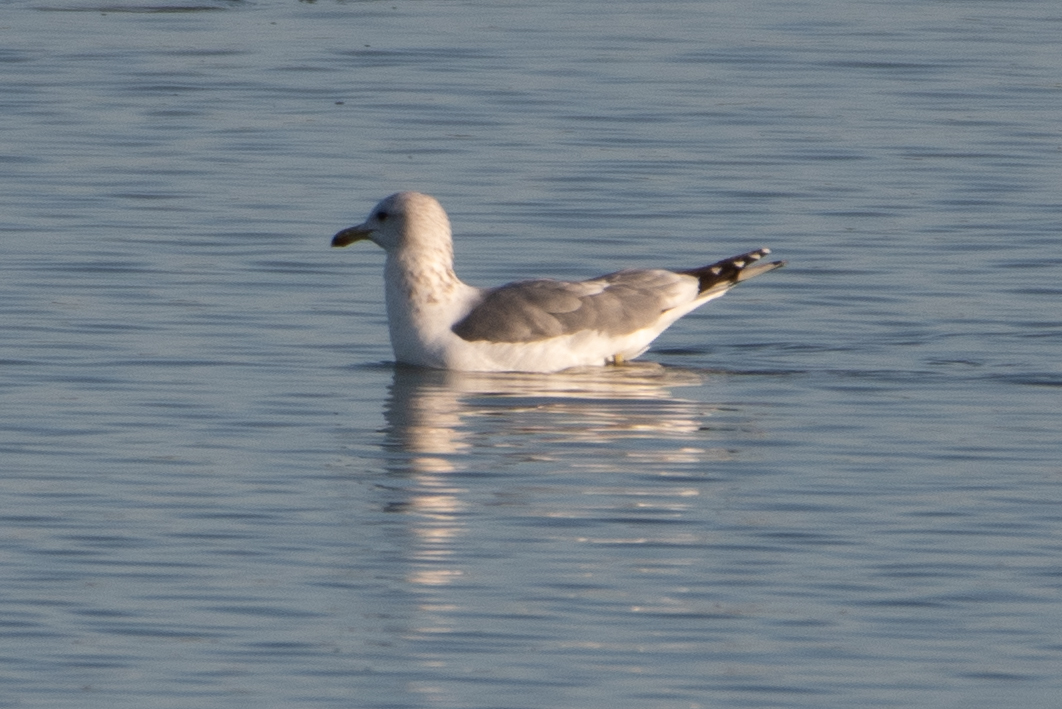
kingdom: Animalia
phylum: Chordata
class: Aves
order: Charadriiformes
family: Laridae
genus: Larus
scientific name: Larus californicus
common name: California gull
